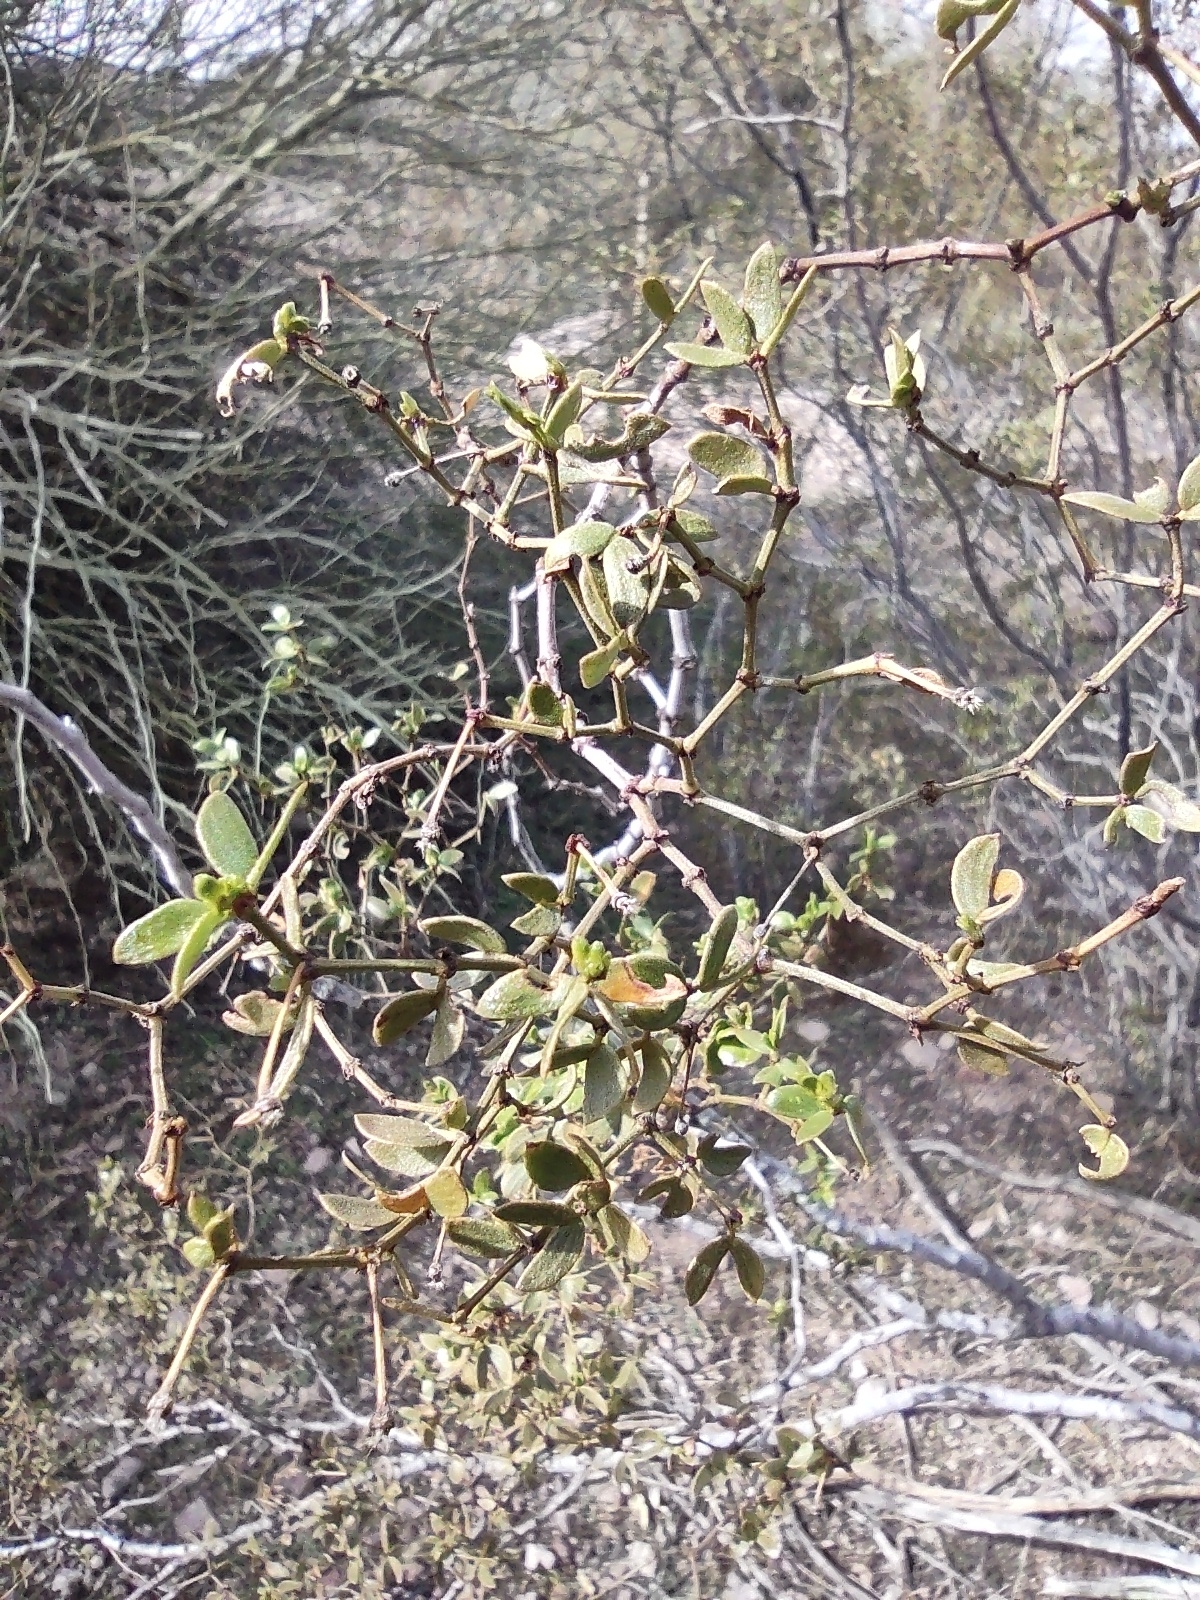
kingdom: Plantae
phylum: Tracheophyta
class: Magnoliopsida
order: Zygophyllales
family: Zygophyllaceae
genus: Larrea
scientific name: Larrea tridentata
